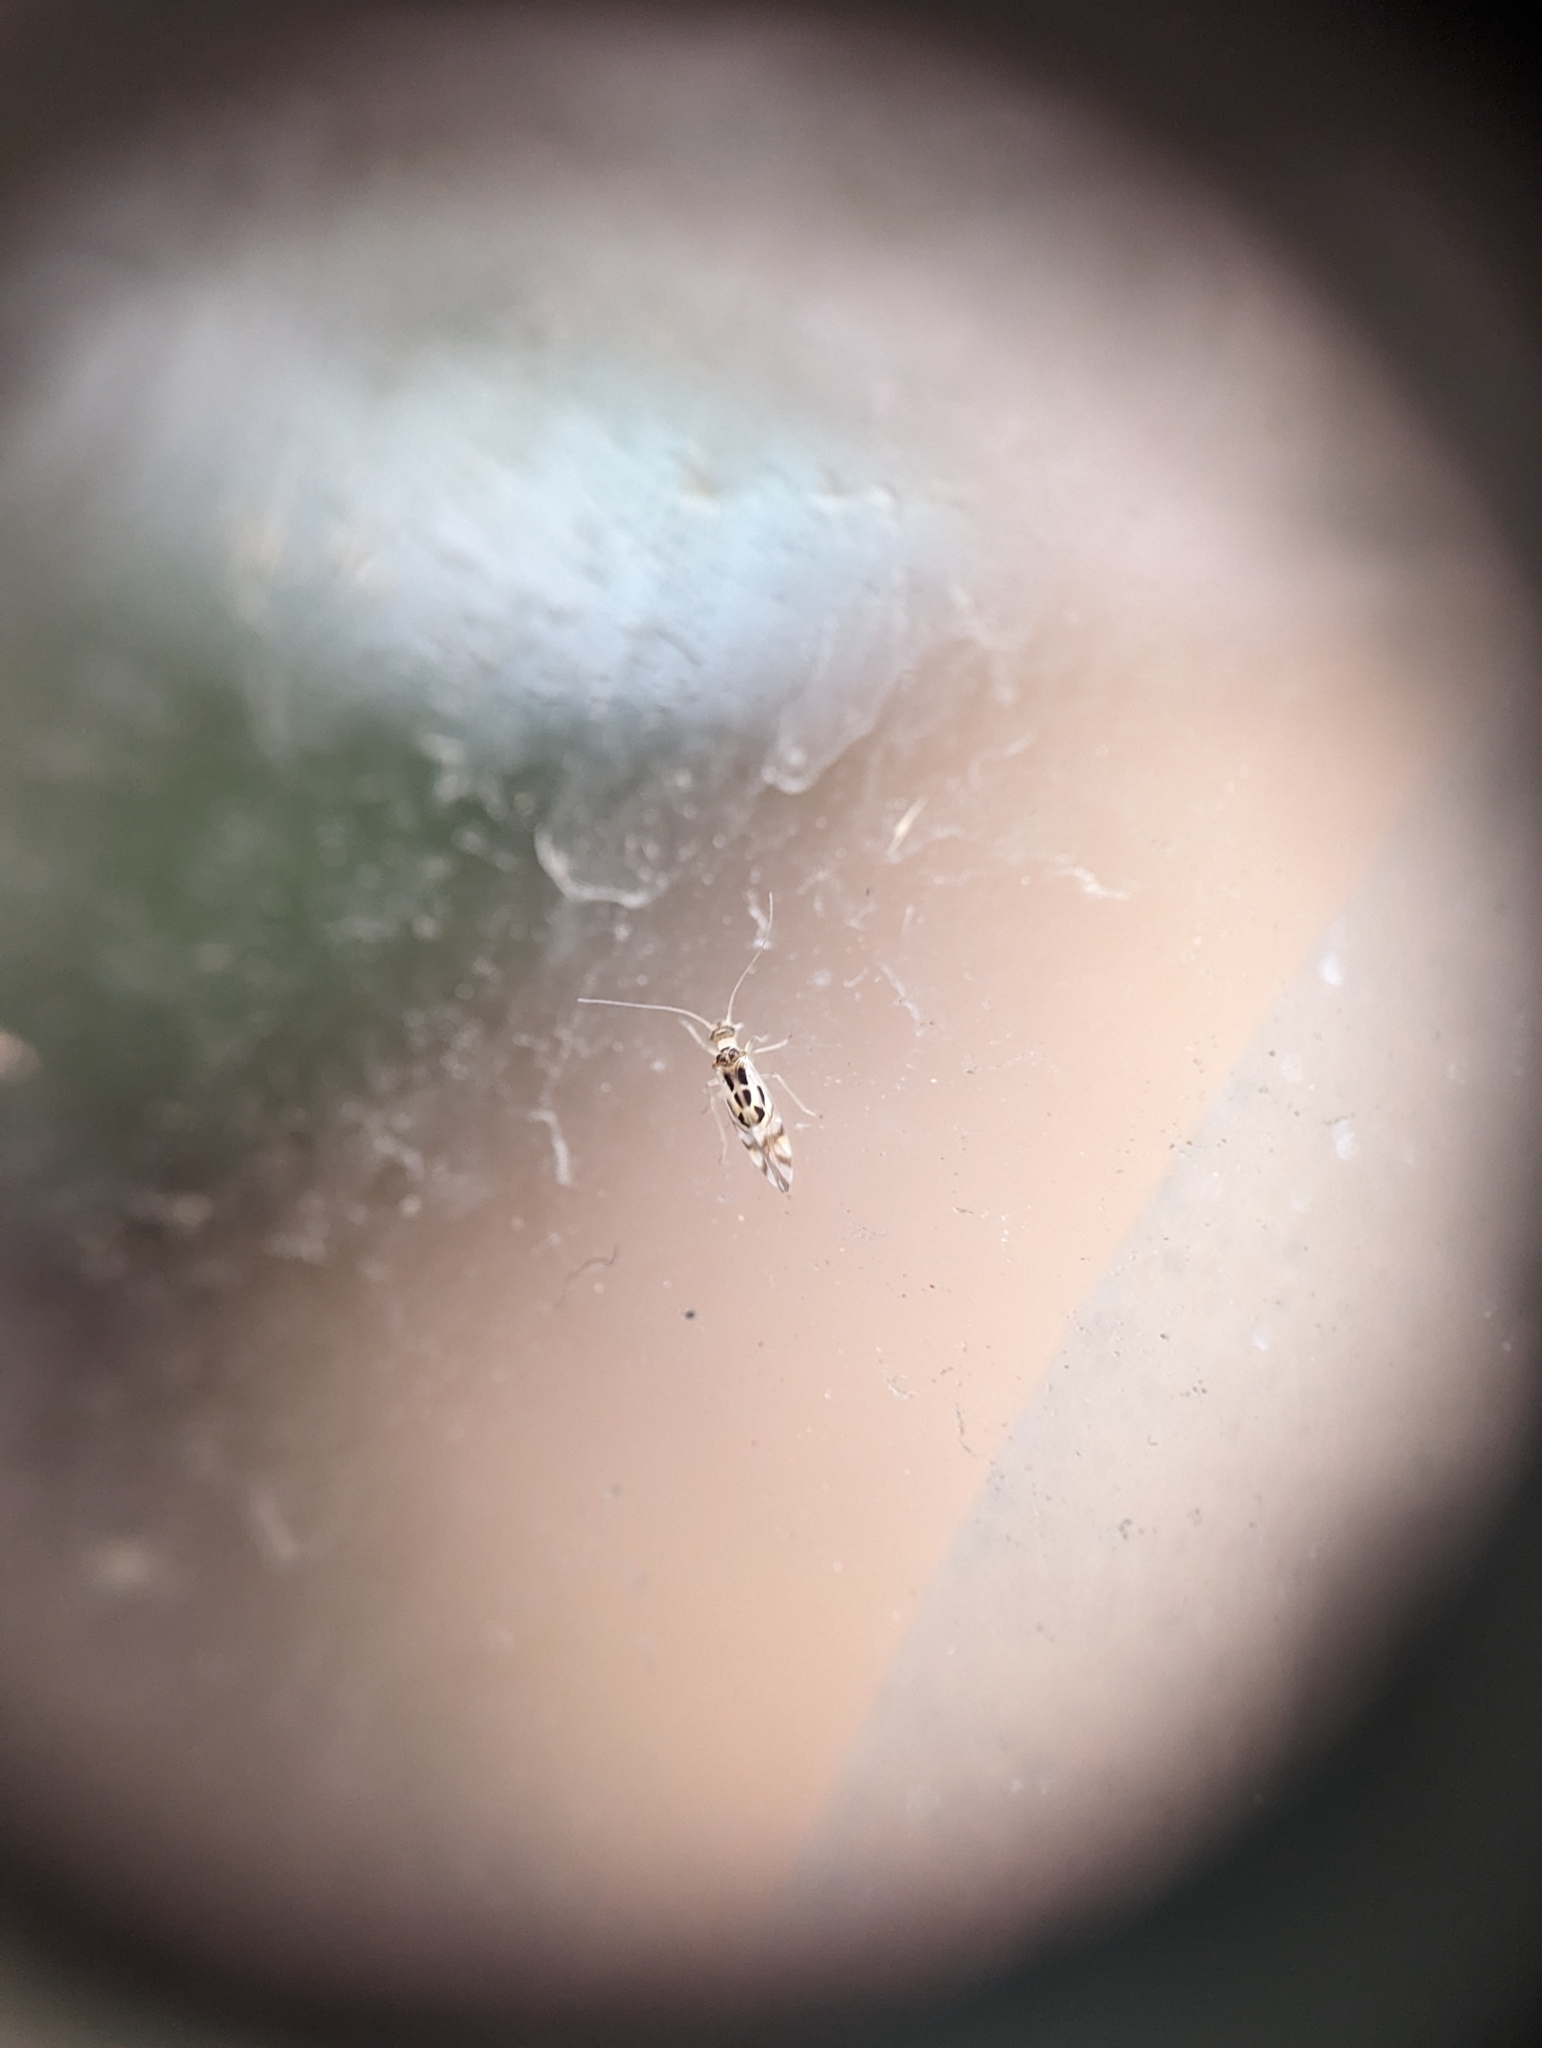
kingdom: Animalia
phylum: Arthropoda
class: Insecta
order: Psocodea
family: Stenopsocidae
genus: Graphopsocus
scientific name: Graphopsocus cruciatus
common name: Lizard bark louse
